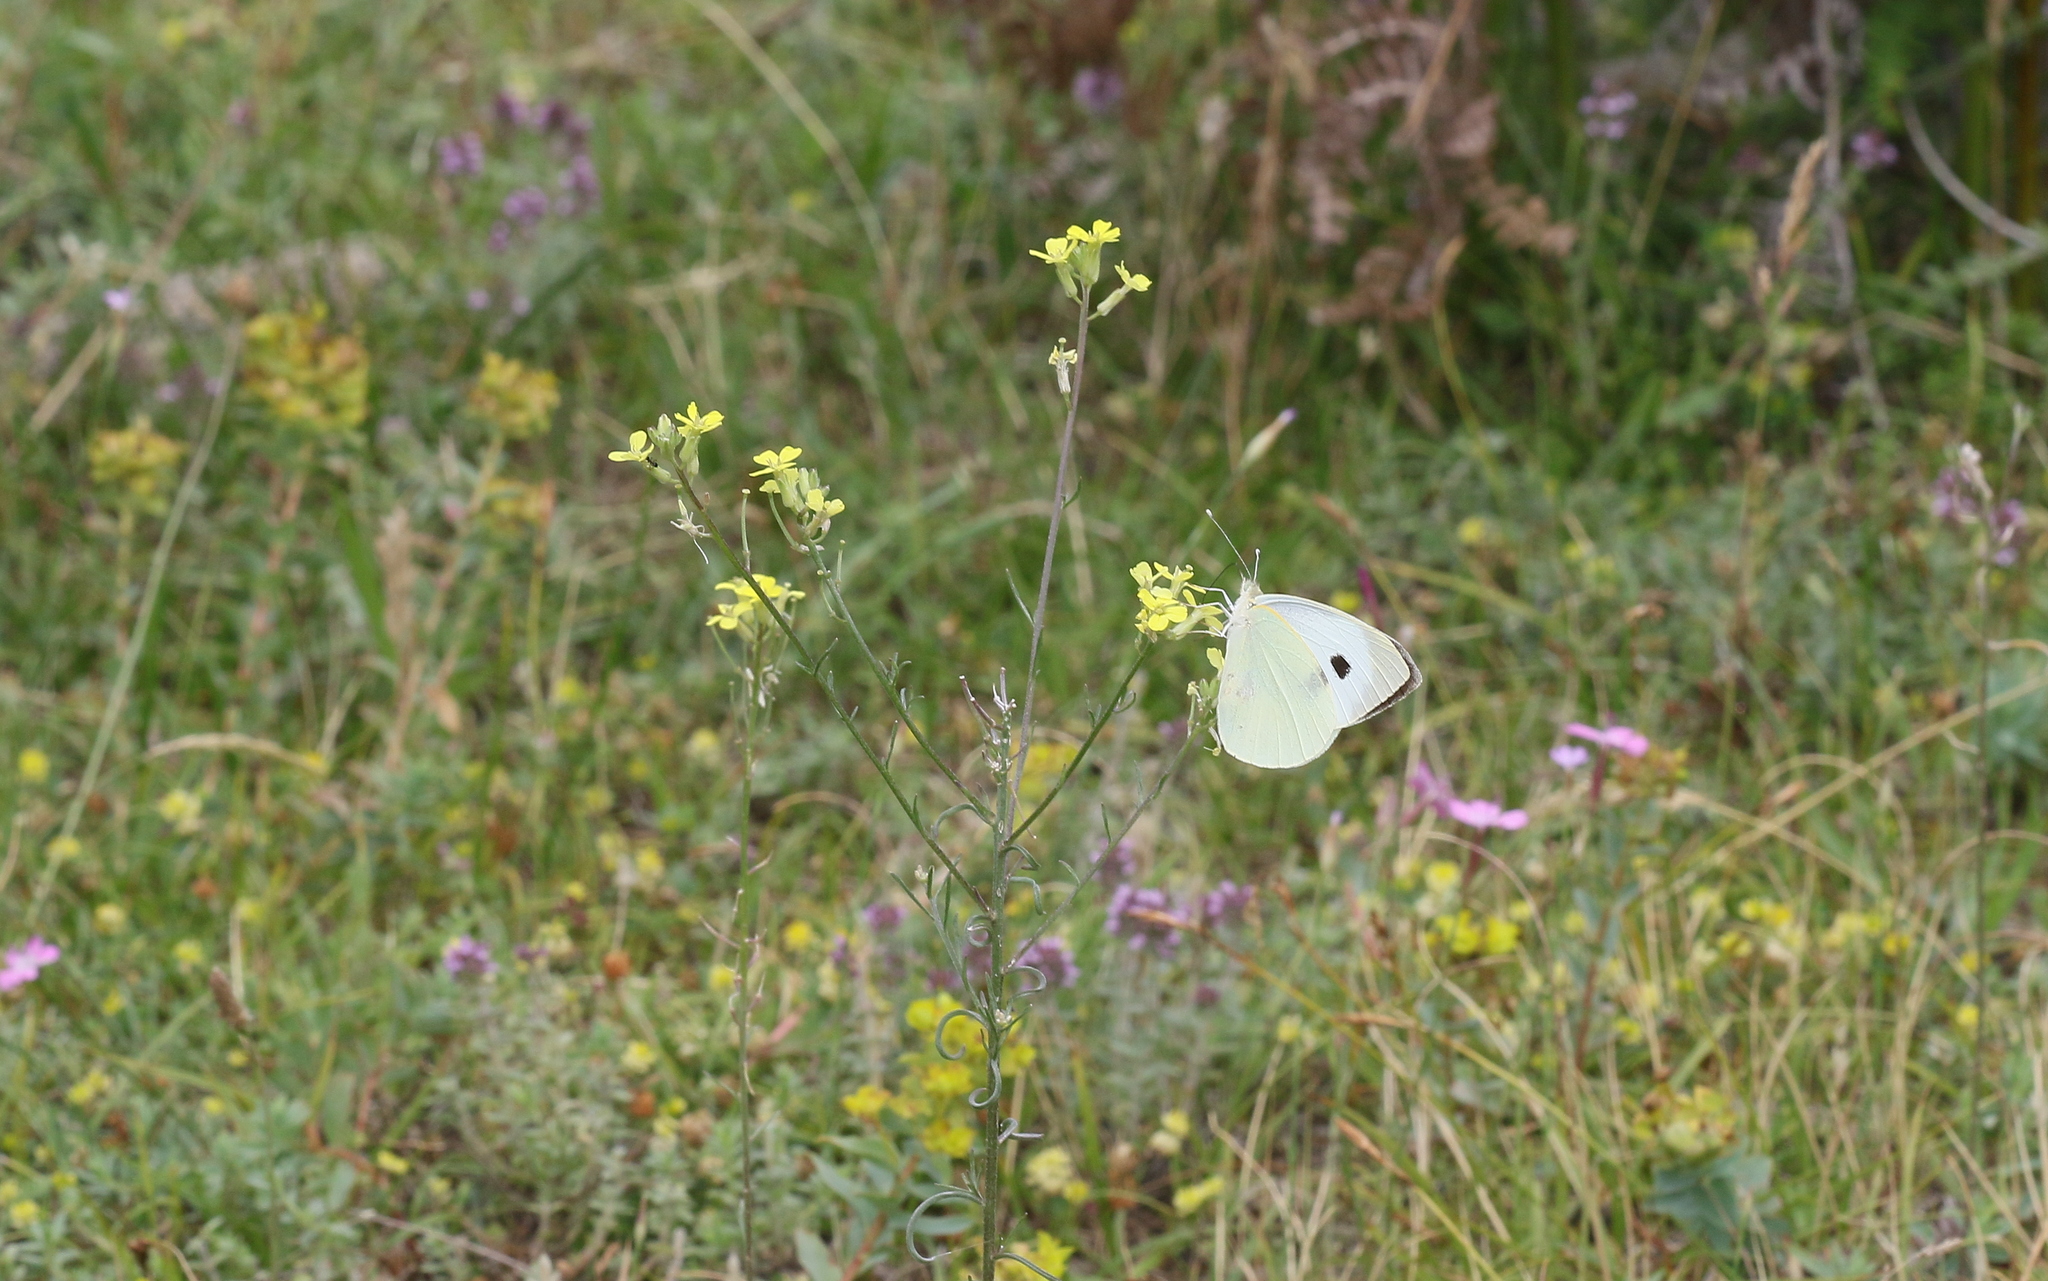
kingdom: Animalia
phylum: Arthropoda
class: Insecta
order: Lepidoptera
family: Pieridae
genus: Pieris
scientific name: Pieris brassicae
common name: Large white
